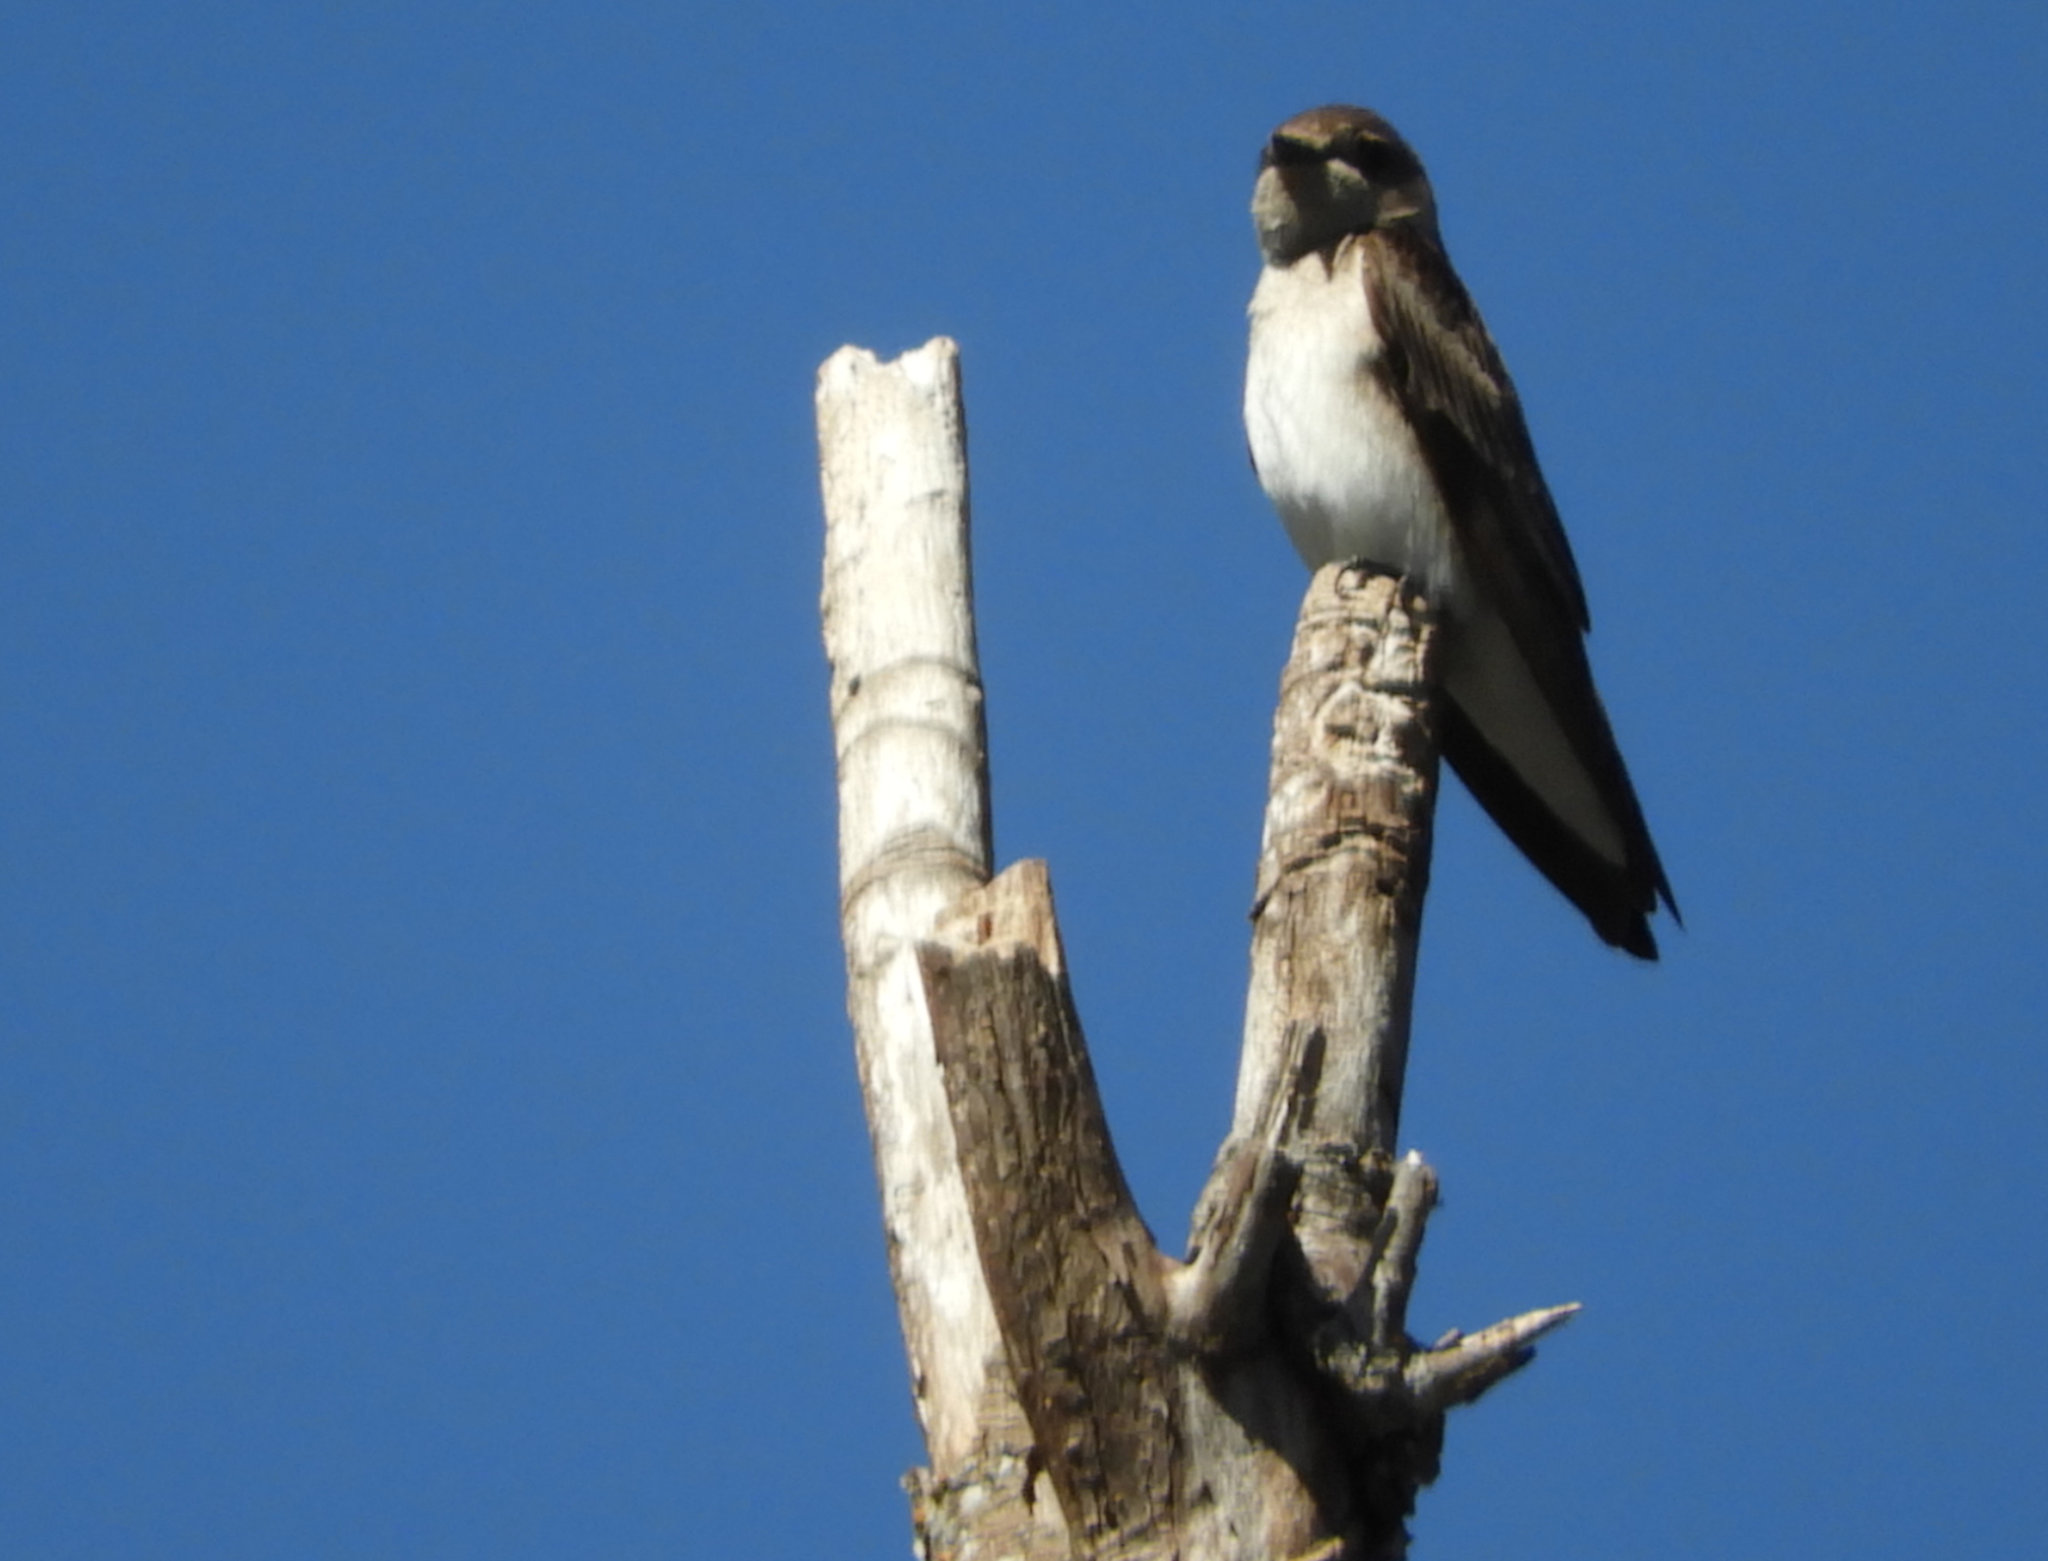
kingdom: Animalia
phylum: Chordata
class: Aves
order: Passeriformes
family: Hirundinidae
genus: Stelgidopteryx
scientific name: Stelgidopteryx serripennis
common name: Northern rough-winged swallow
